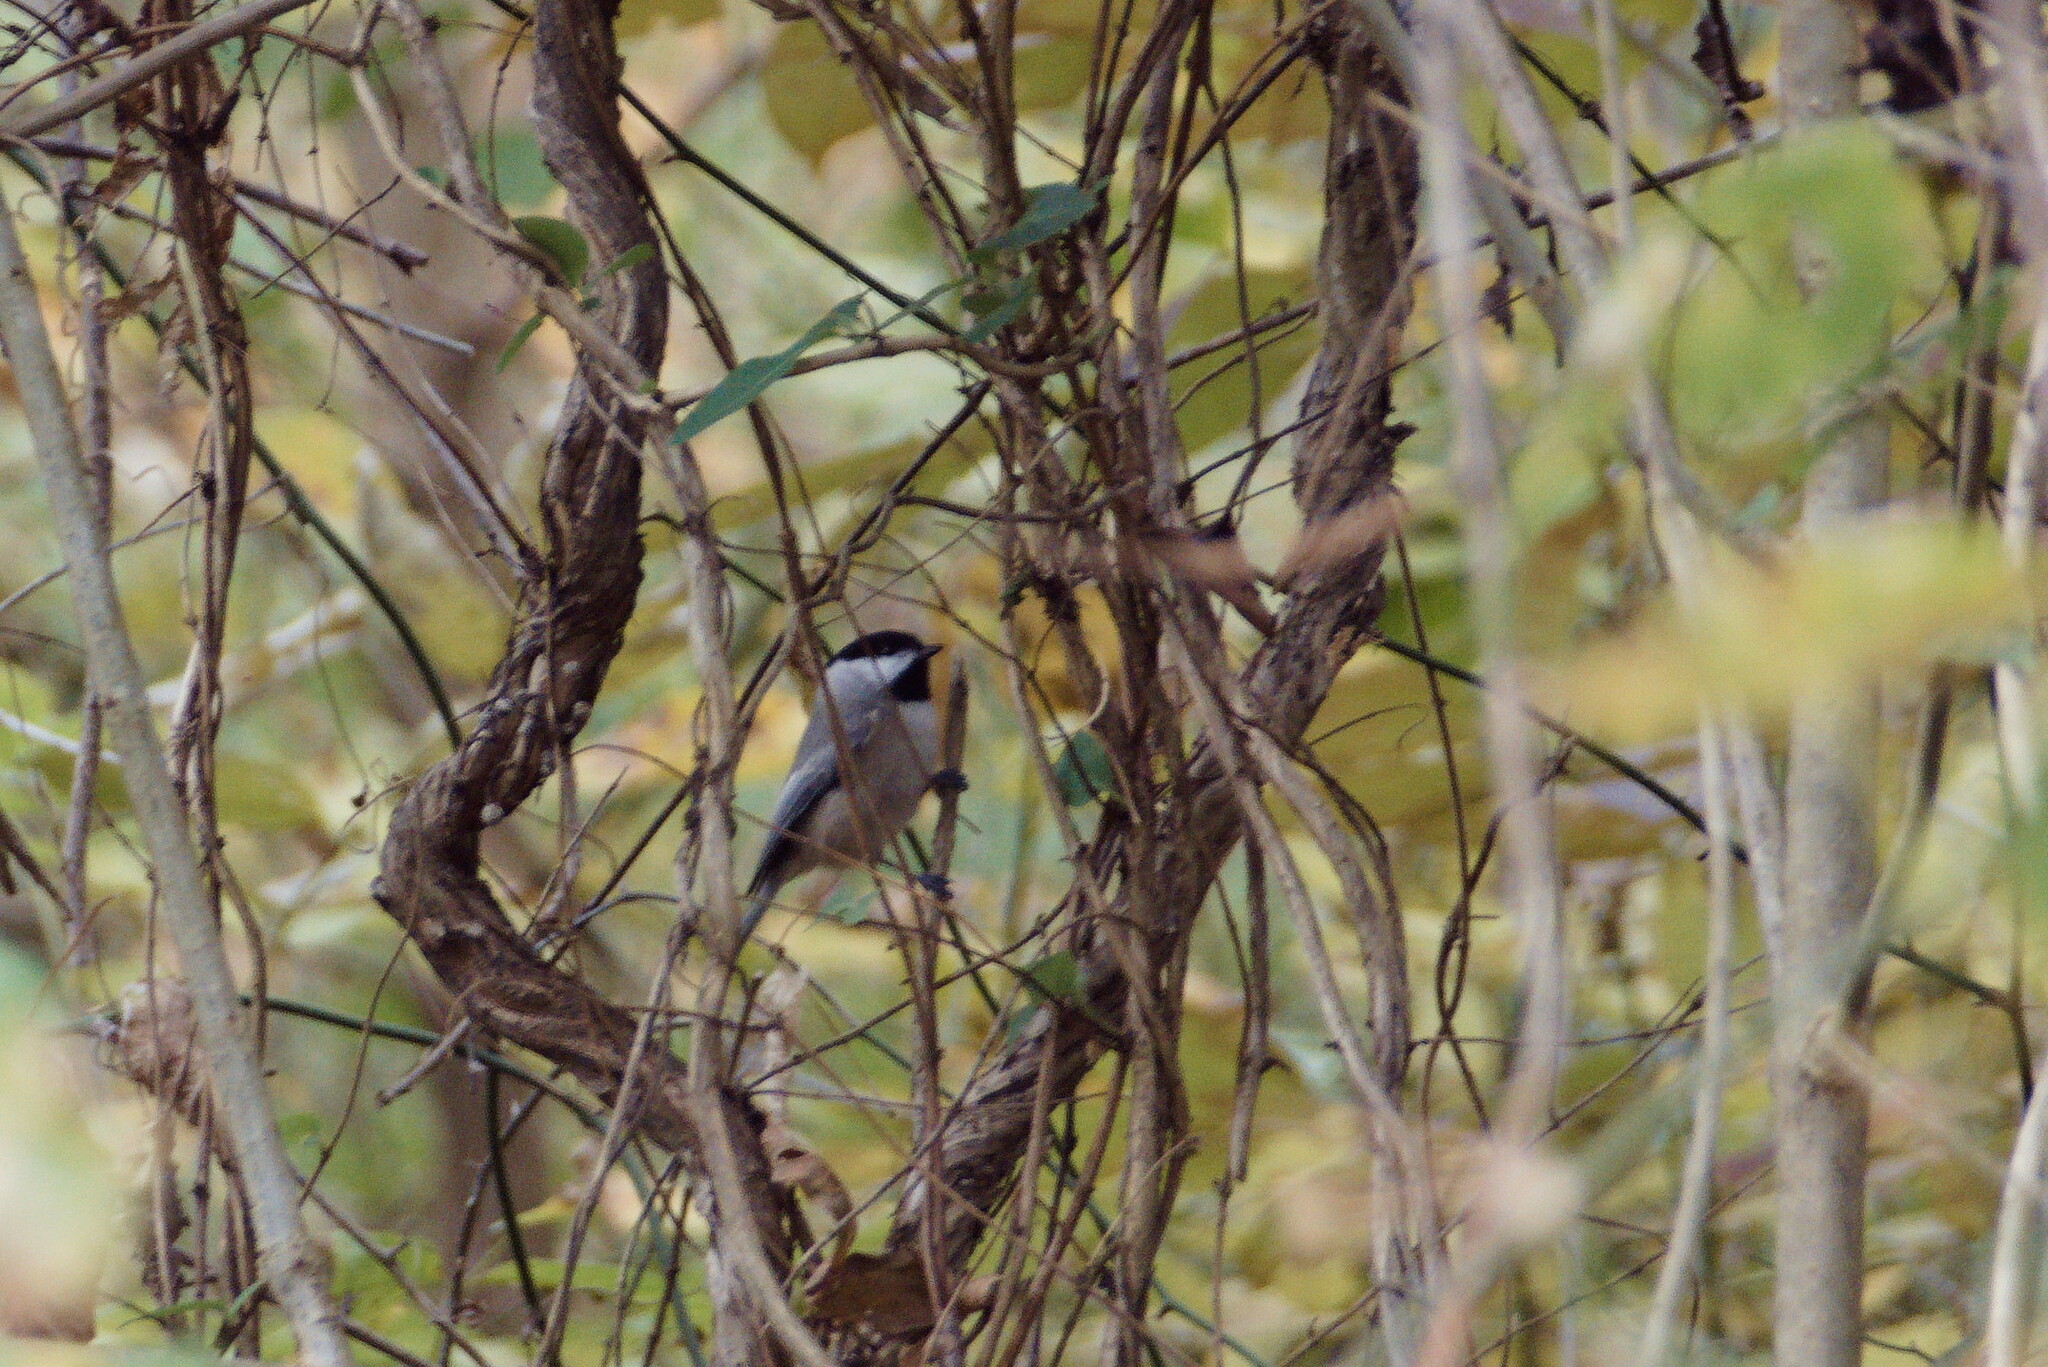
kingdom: Animalia
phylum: Chordata
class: Aves
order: Passeriformes
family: Paridae
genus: Poecile
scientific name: Poecile carolinensis
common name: Carolina chickadee
